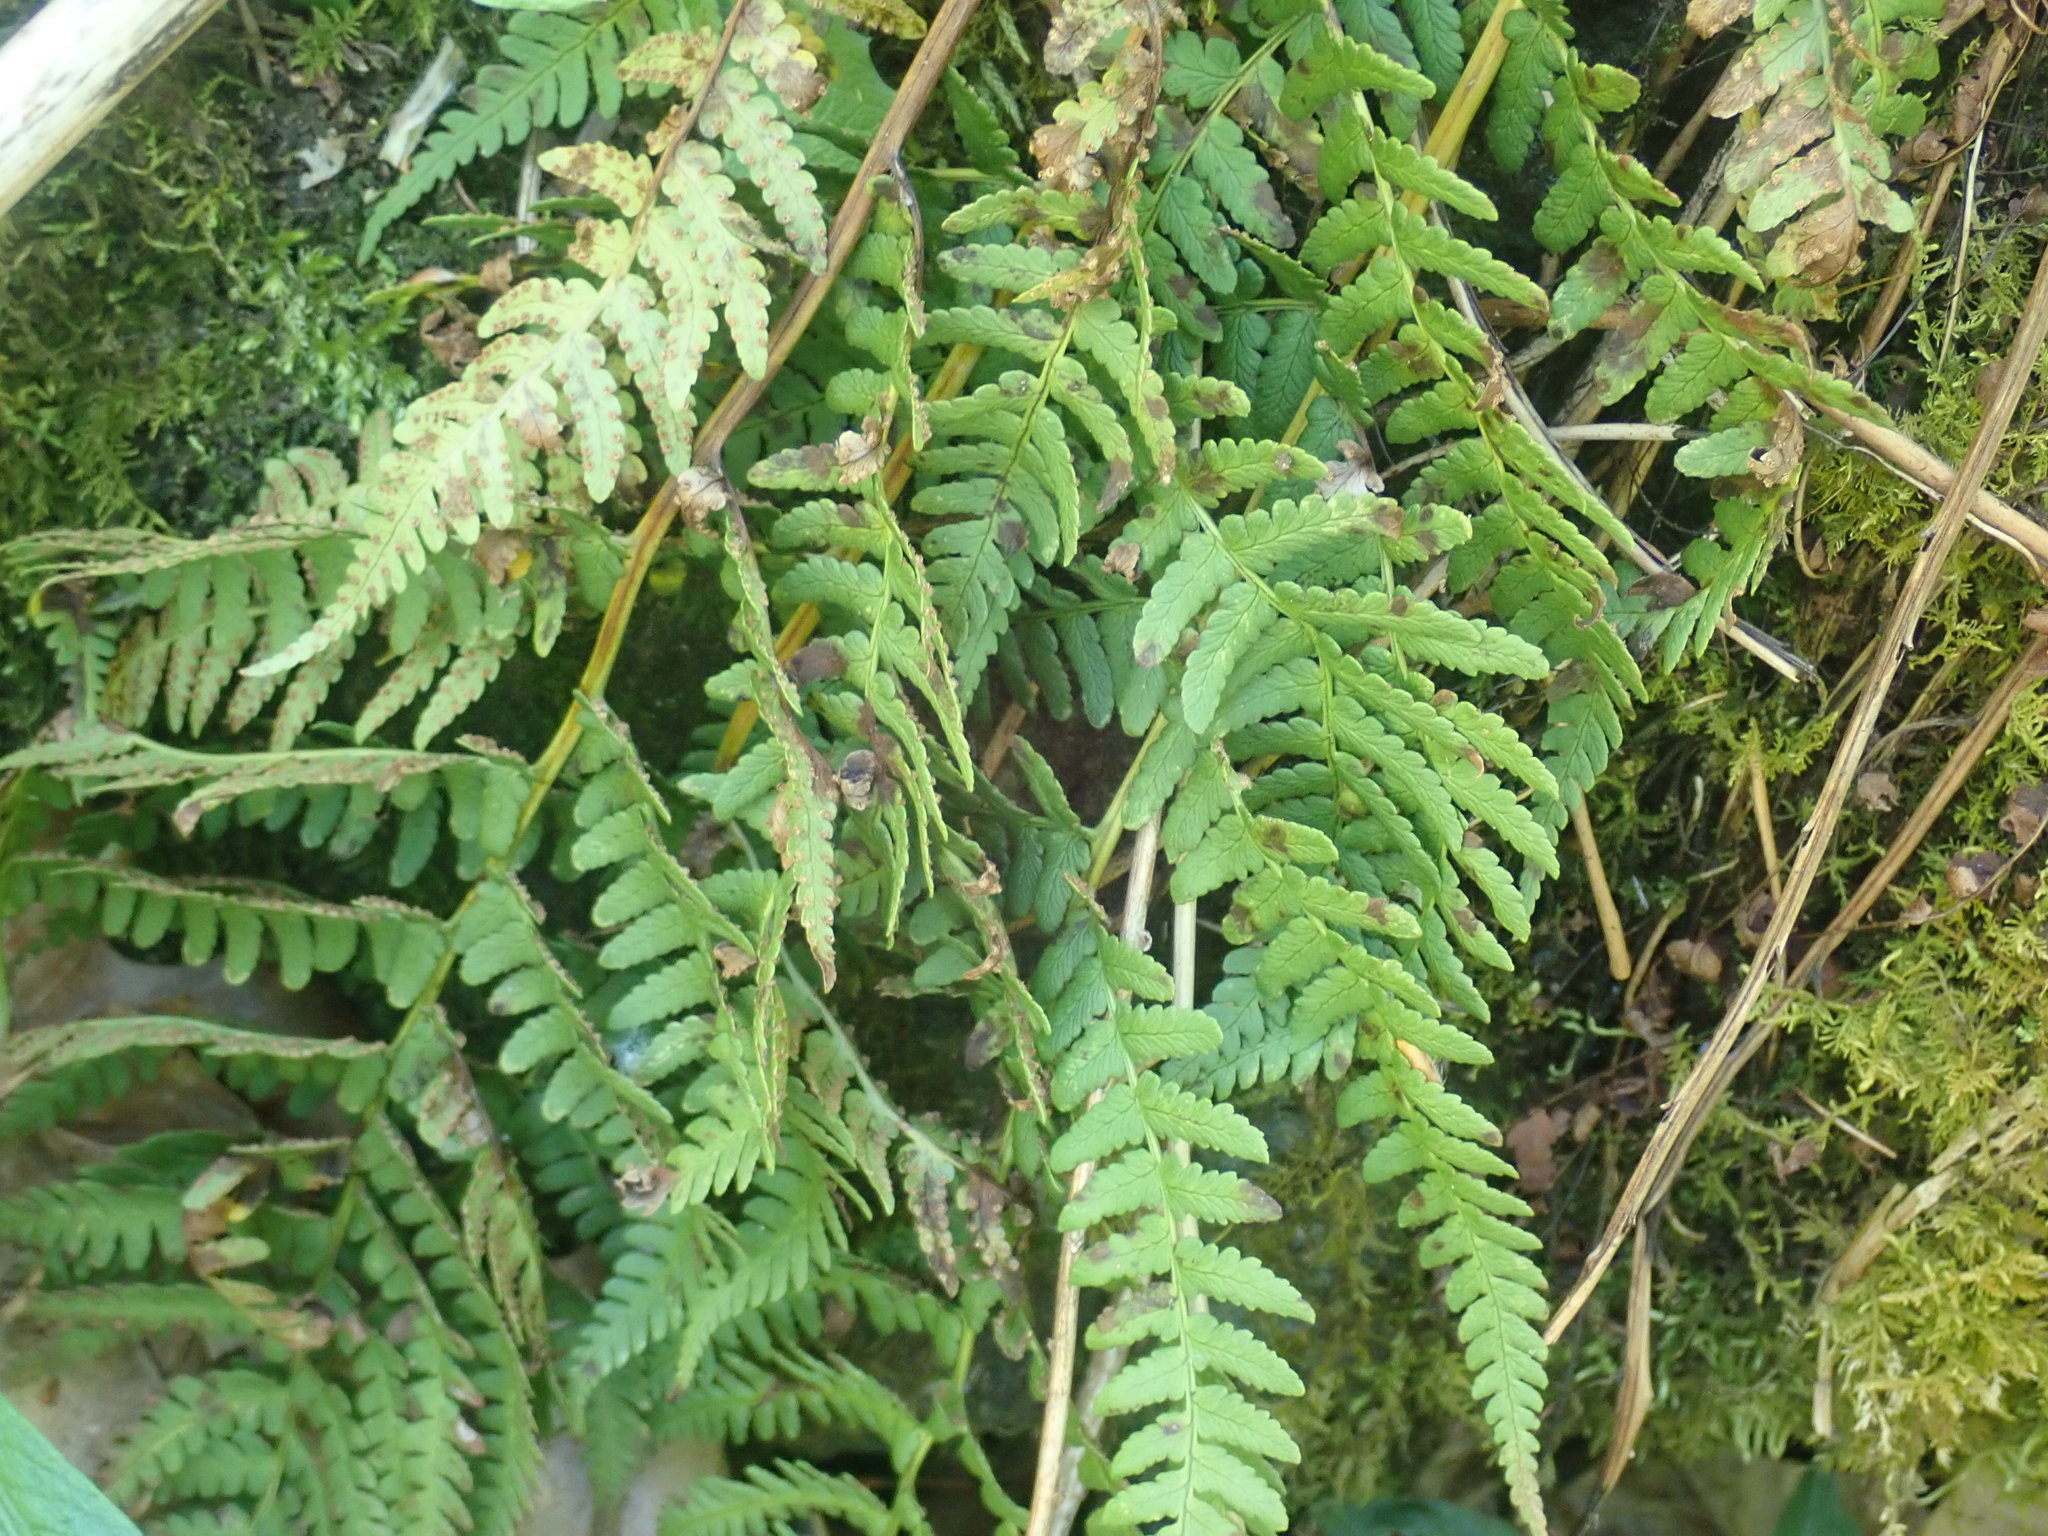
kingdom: Plantae
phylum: Tracheophyta
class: Polypodiopsida
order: Polypodiales
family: Dryopteridaceae
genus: Dryopteris
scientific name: Dryopteris marginalis
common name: Marginal wood fern
